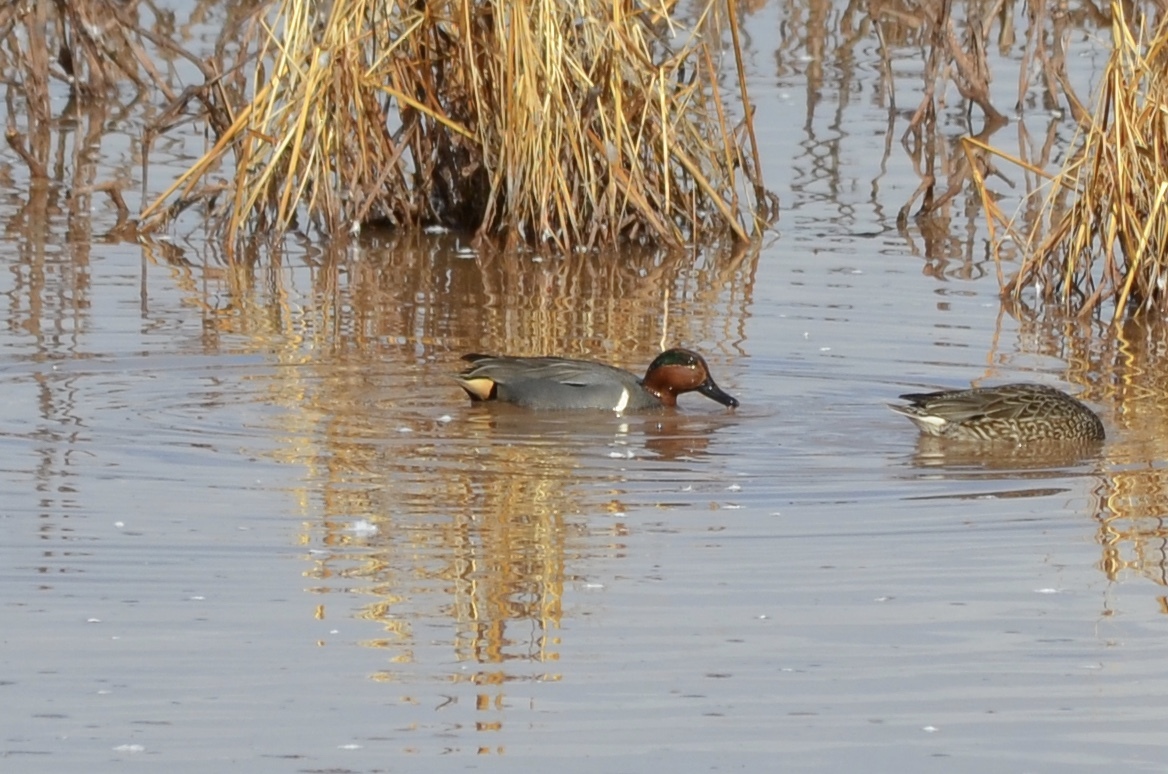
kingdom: Animalia
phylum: Chordata
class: Aves
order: Anseriformes
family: Anatidae
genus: Anas
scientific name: Anas crecca
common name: Eurasian teal
